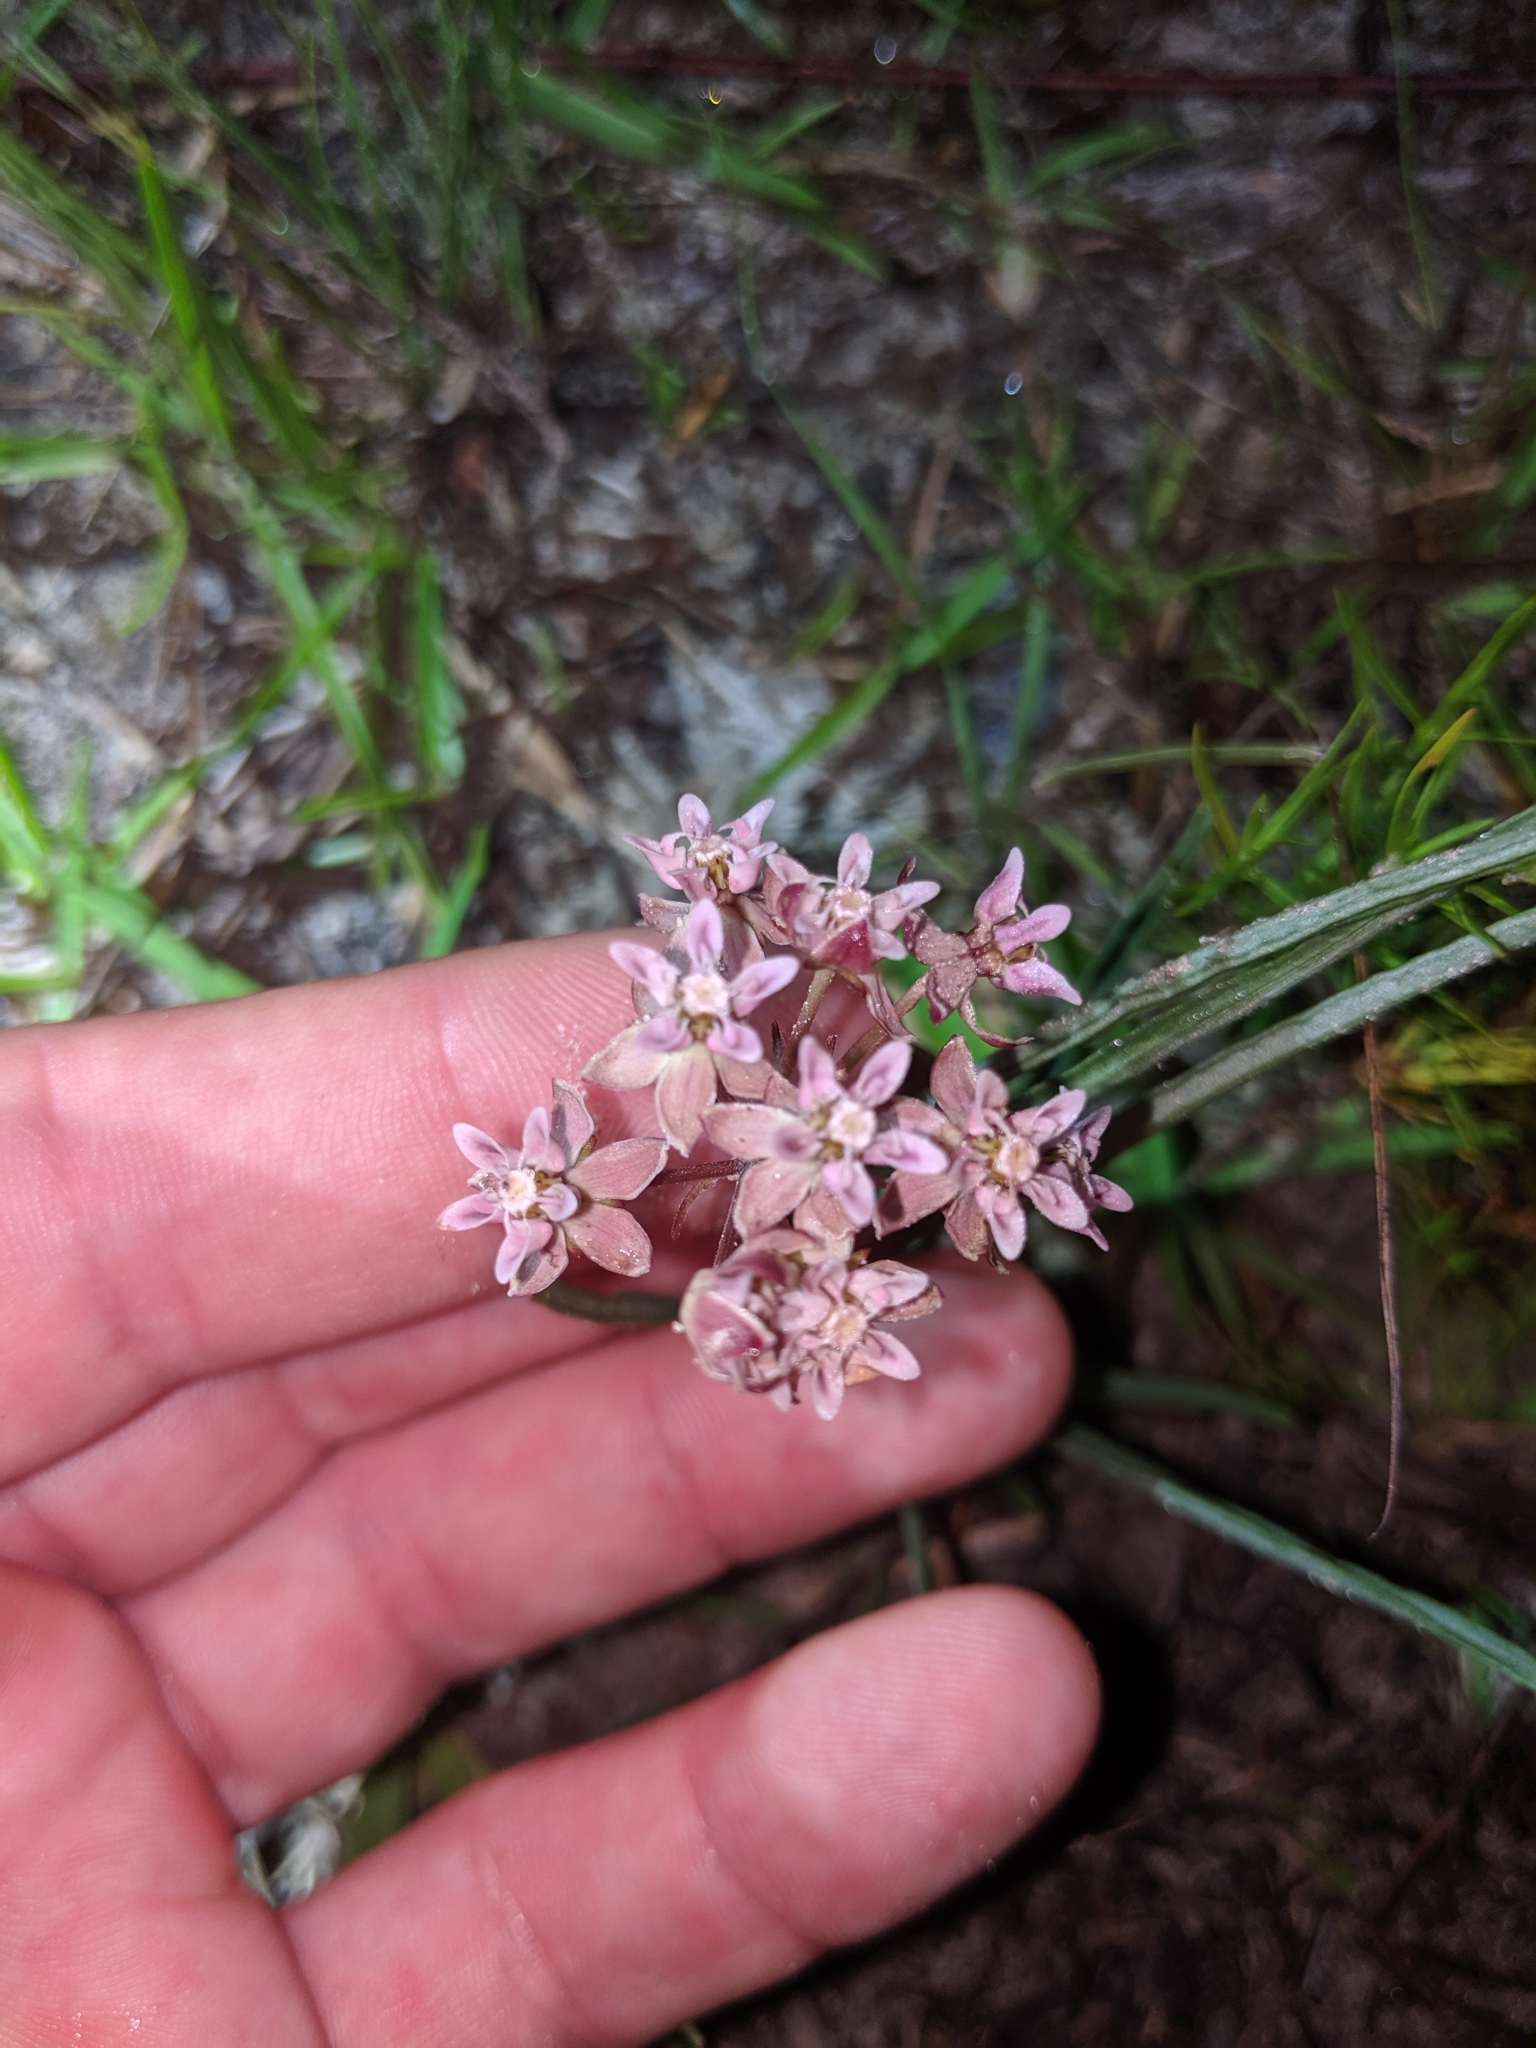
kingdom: Plantae
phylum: Tracheophyta
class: Magnoliopsida
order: Gentianales
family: Apocynaceae
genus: Asclepias
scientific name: Asclepias michauxii
